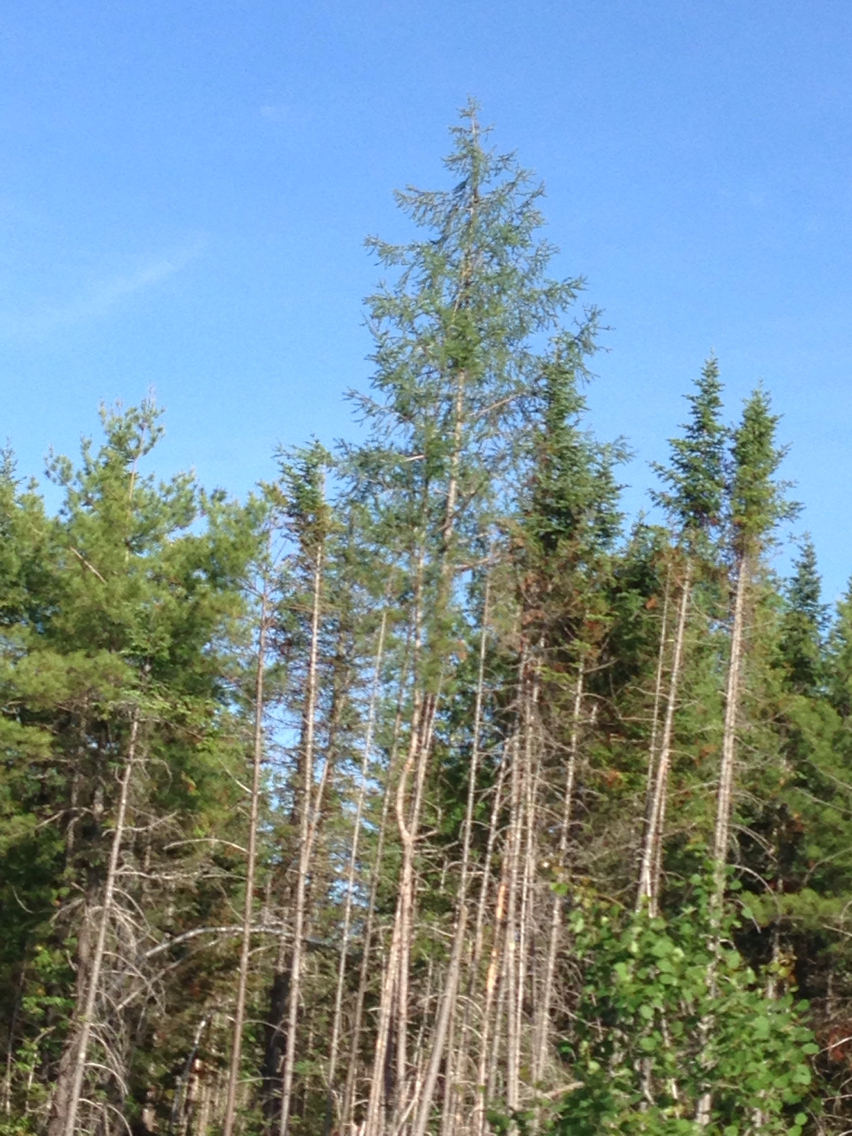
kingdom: Plantae
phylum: Tracheophyta
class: Pinopsida
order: Pinales
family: Pinaceae
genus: Larix
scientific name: Larix laricina
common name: American larch
